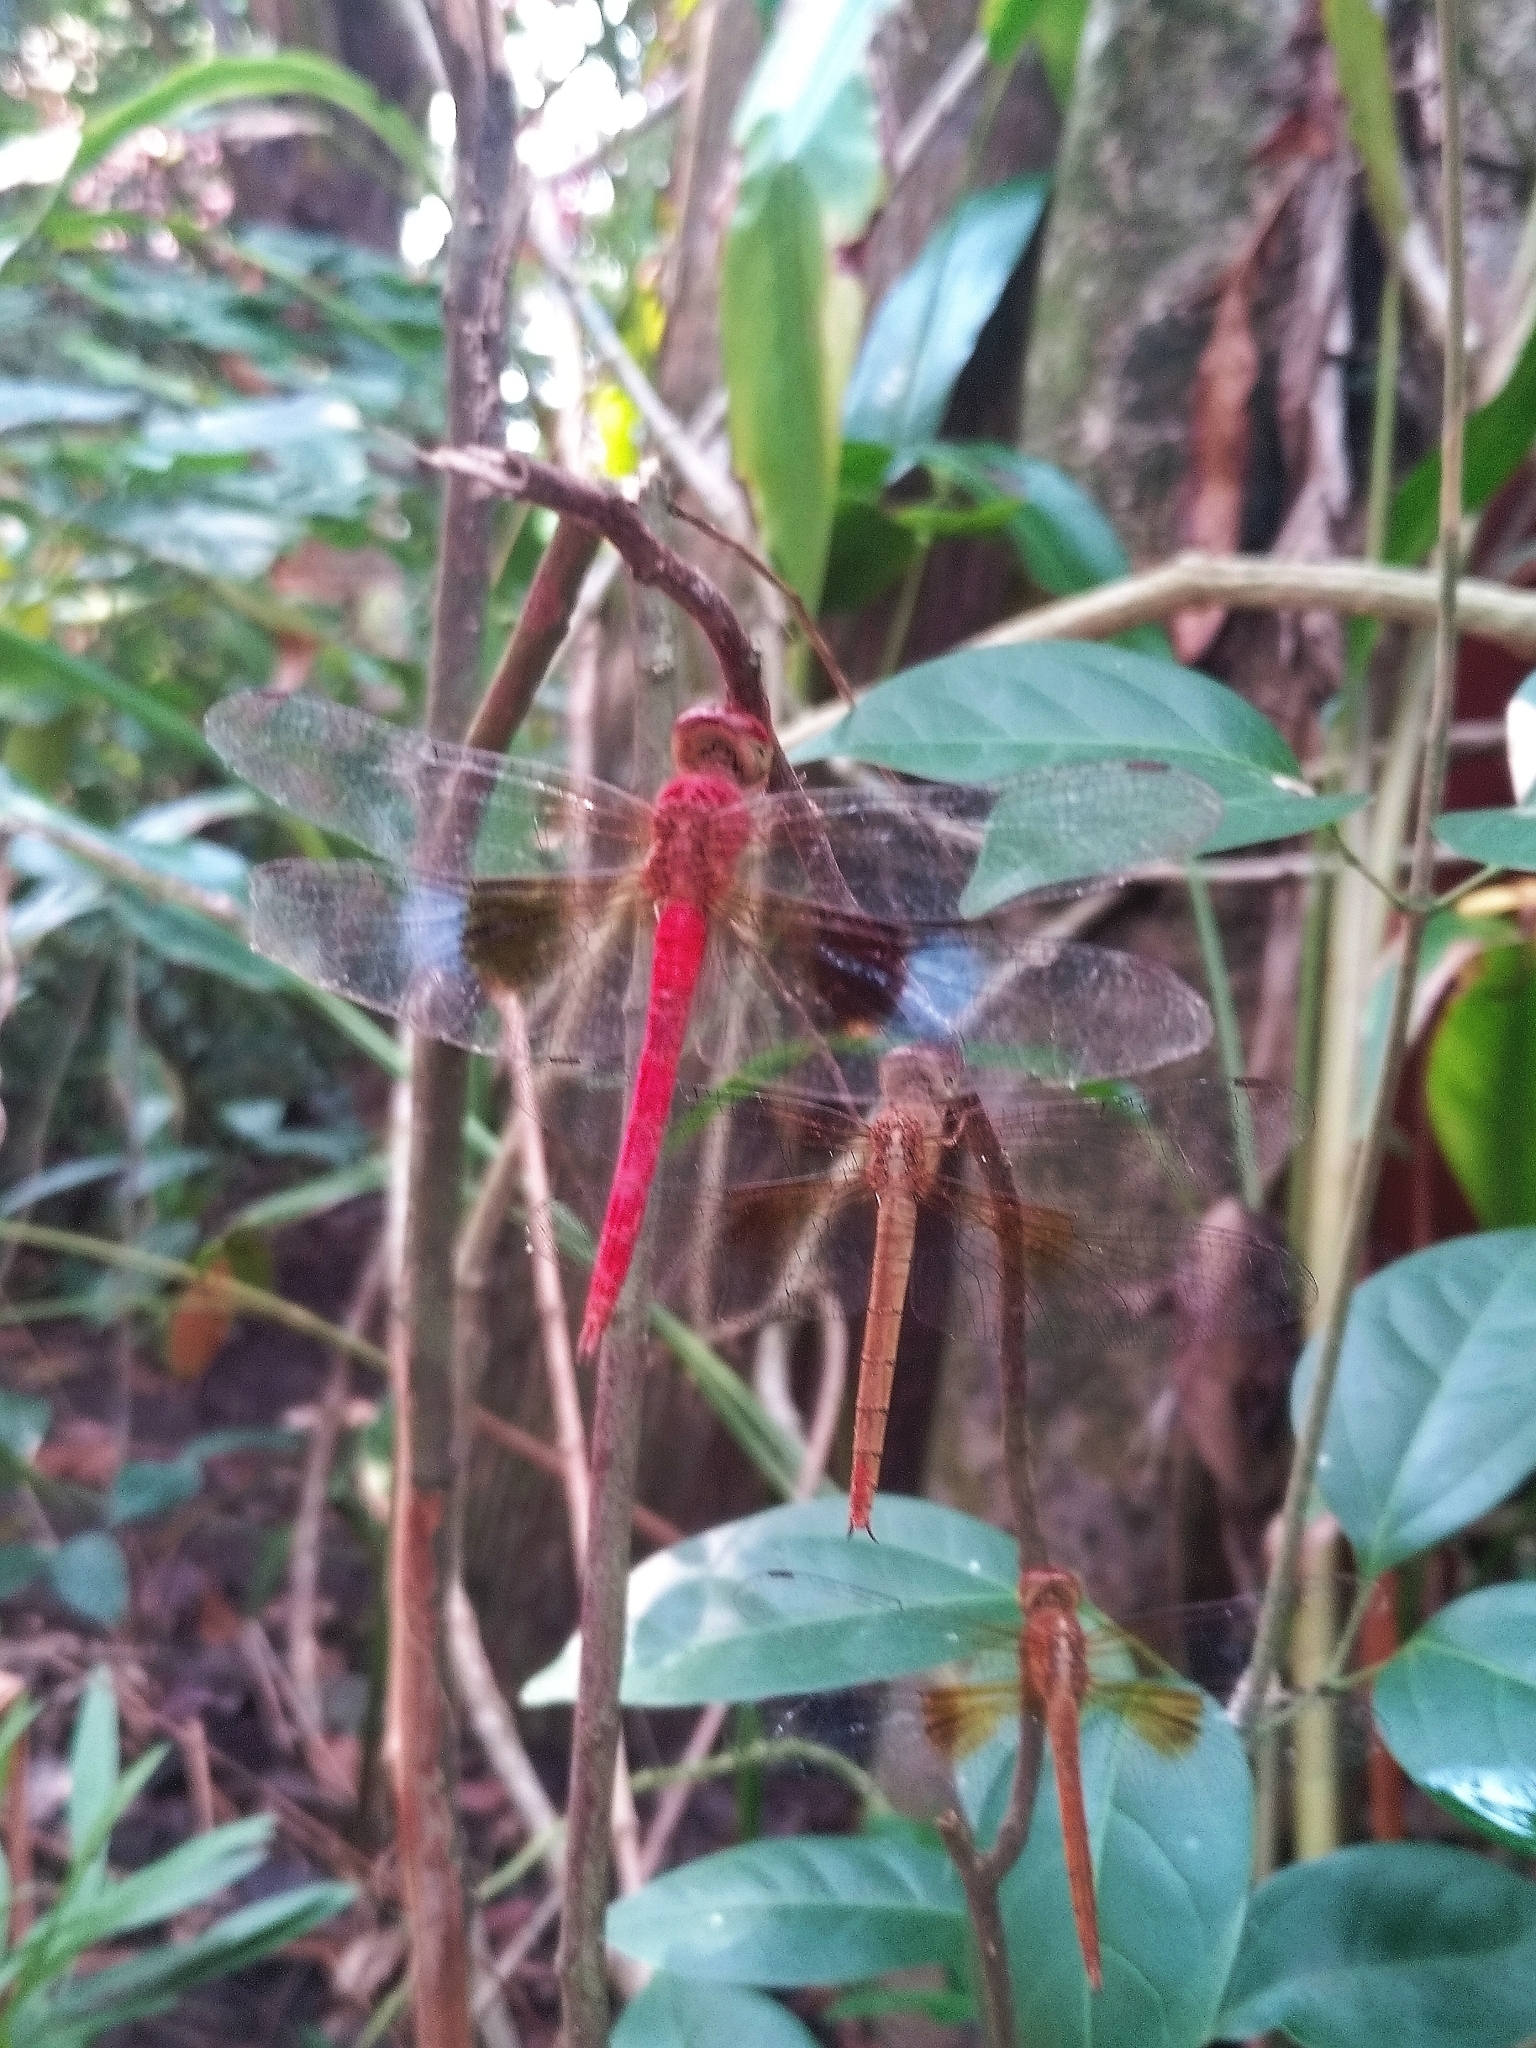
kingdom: Animalia
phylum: Arthropoda
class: Insecta
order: Odonata
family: Libellulidae
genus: Tholymis
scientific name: Tholymis tillarga
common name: Coral-tailed cloud wing
